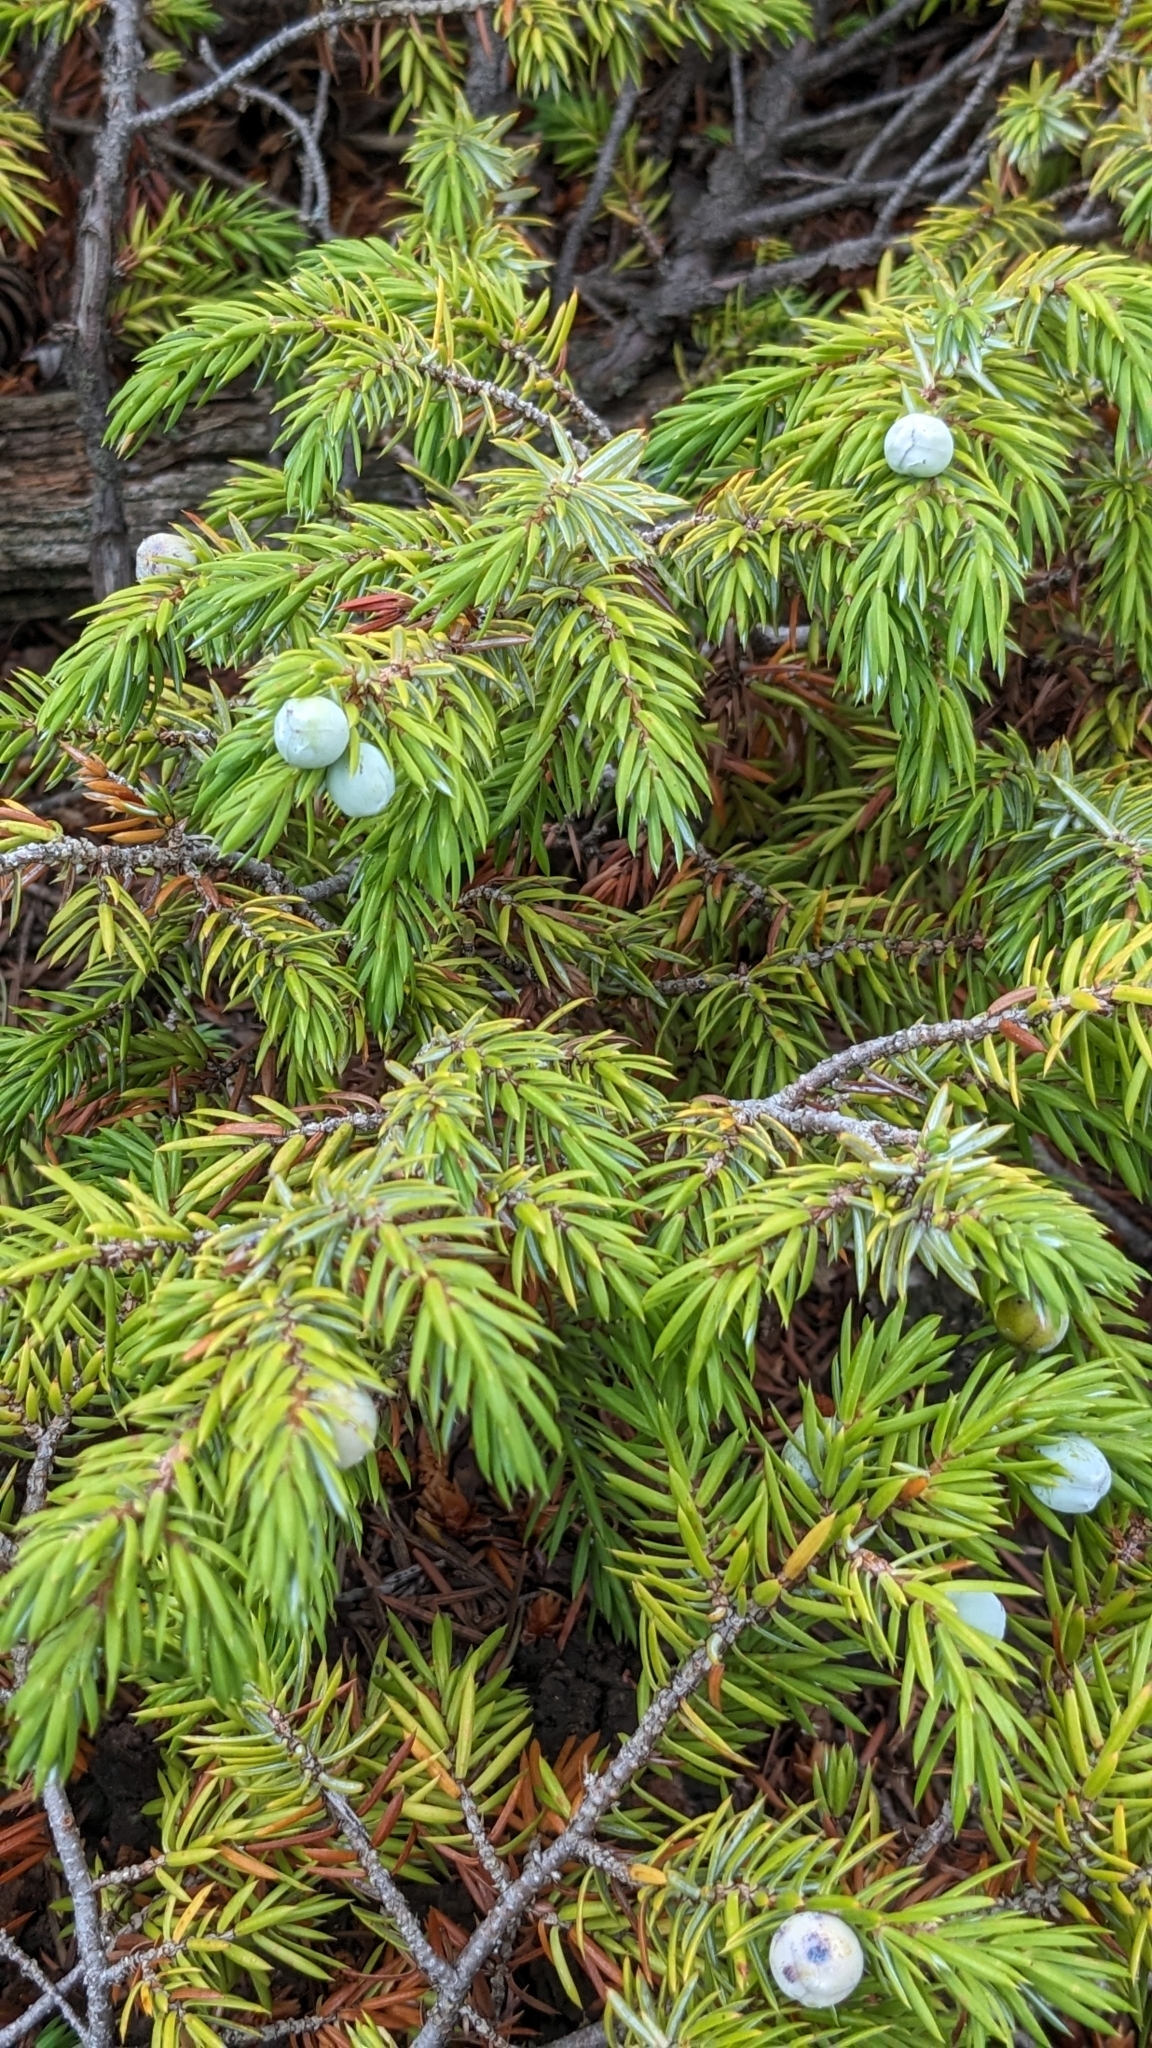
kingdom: Plantae
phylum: Tracheophyta
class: Pinopsida
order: Pinales
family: Cupressaceae
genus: Juniperus
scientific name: Juniperus communis
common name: Common juniper
